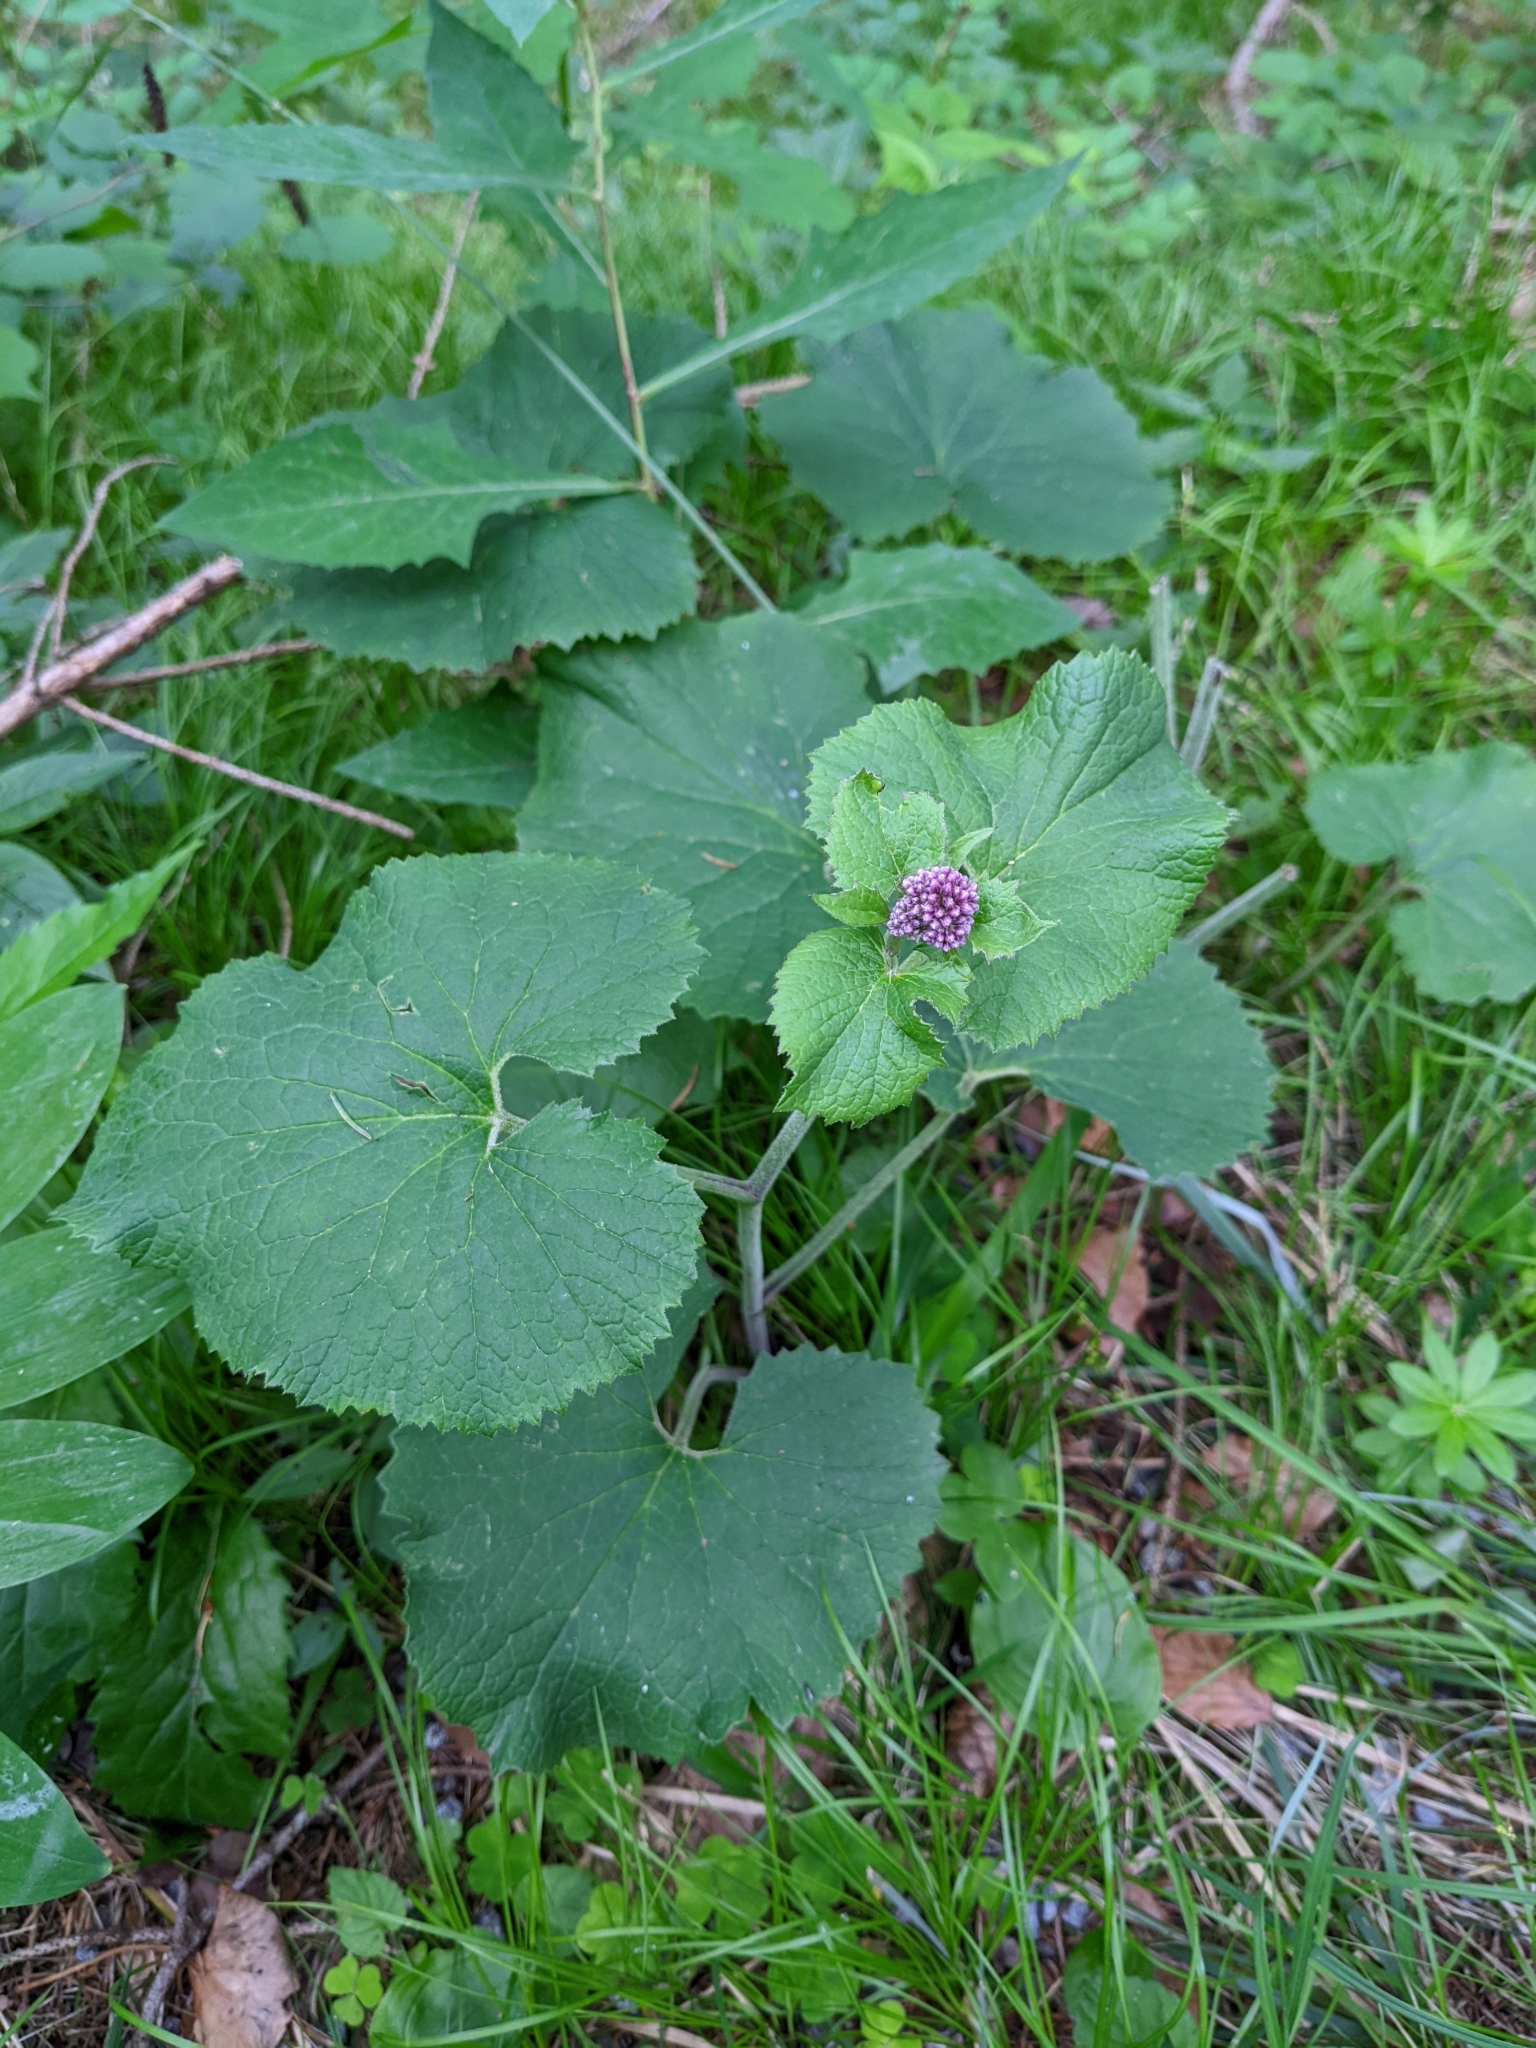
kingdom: Plantae
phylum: Tracheophyta
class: Magnoliopsida
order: Asterales
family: Asteraceae
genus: Adenostyles
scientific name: Adenostyles alpina
